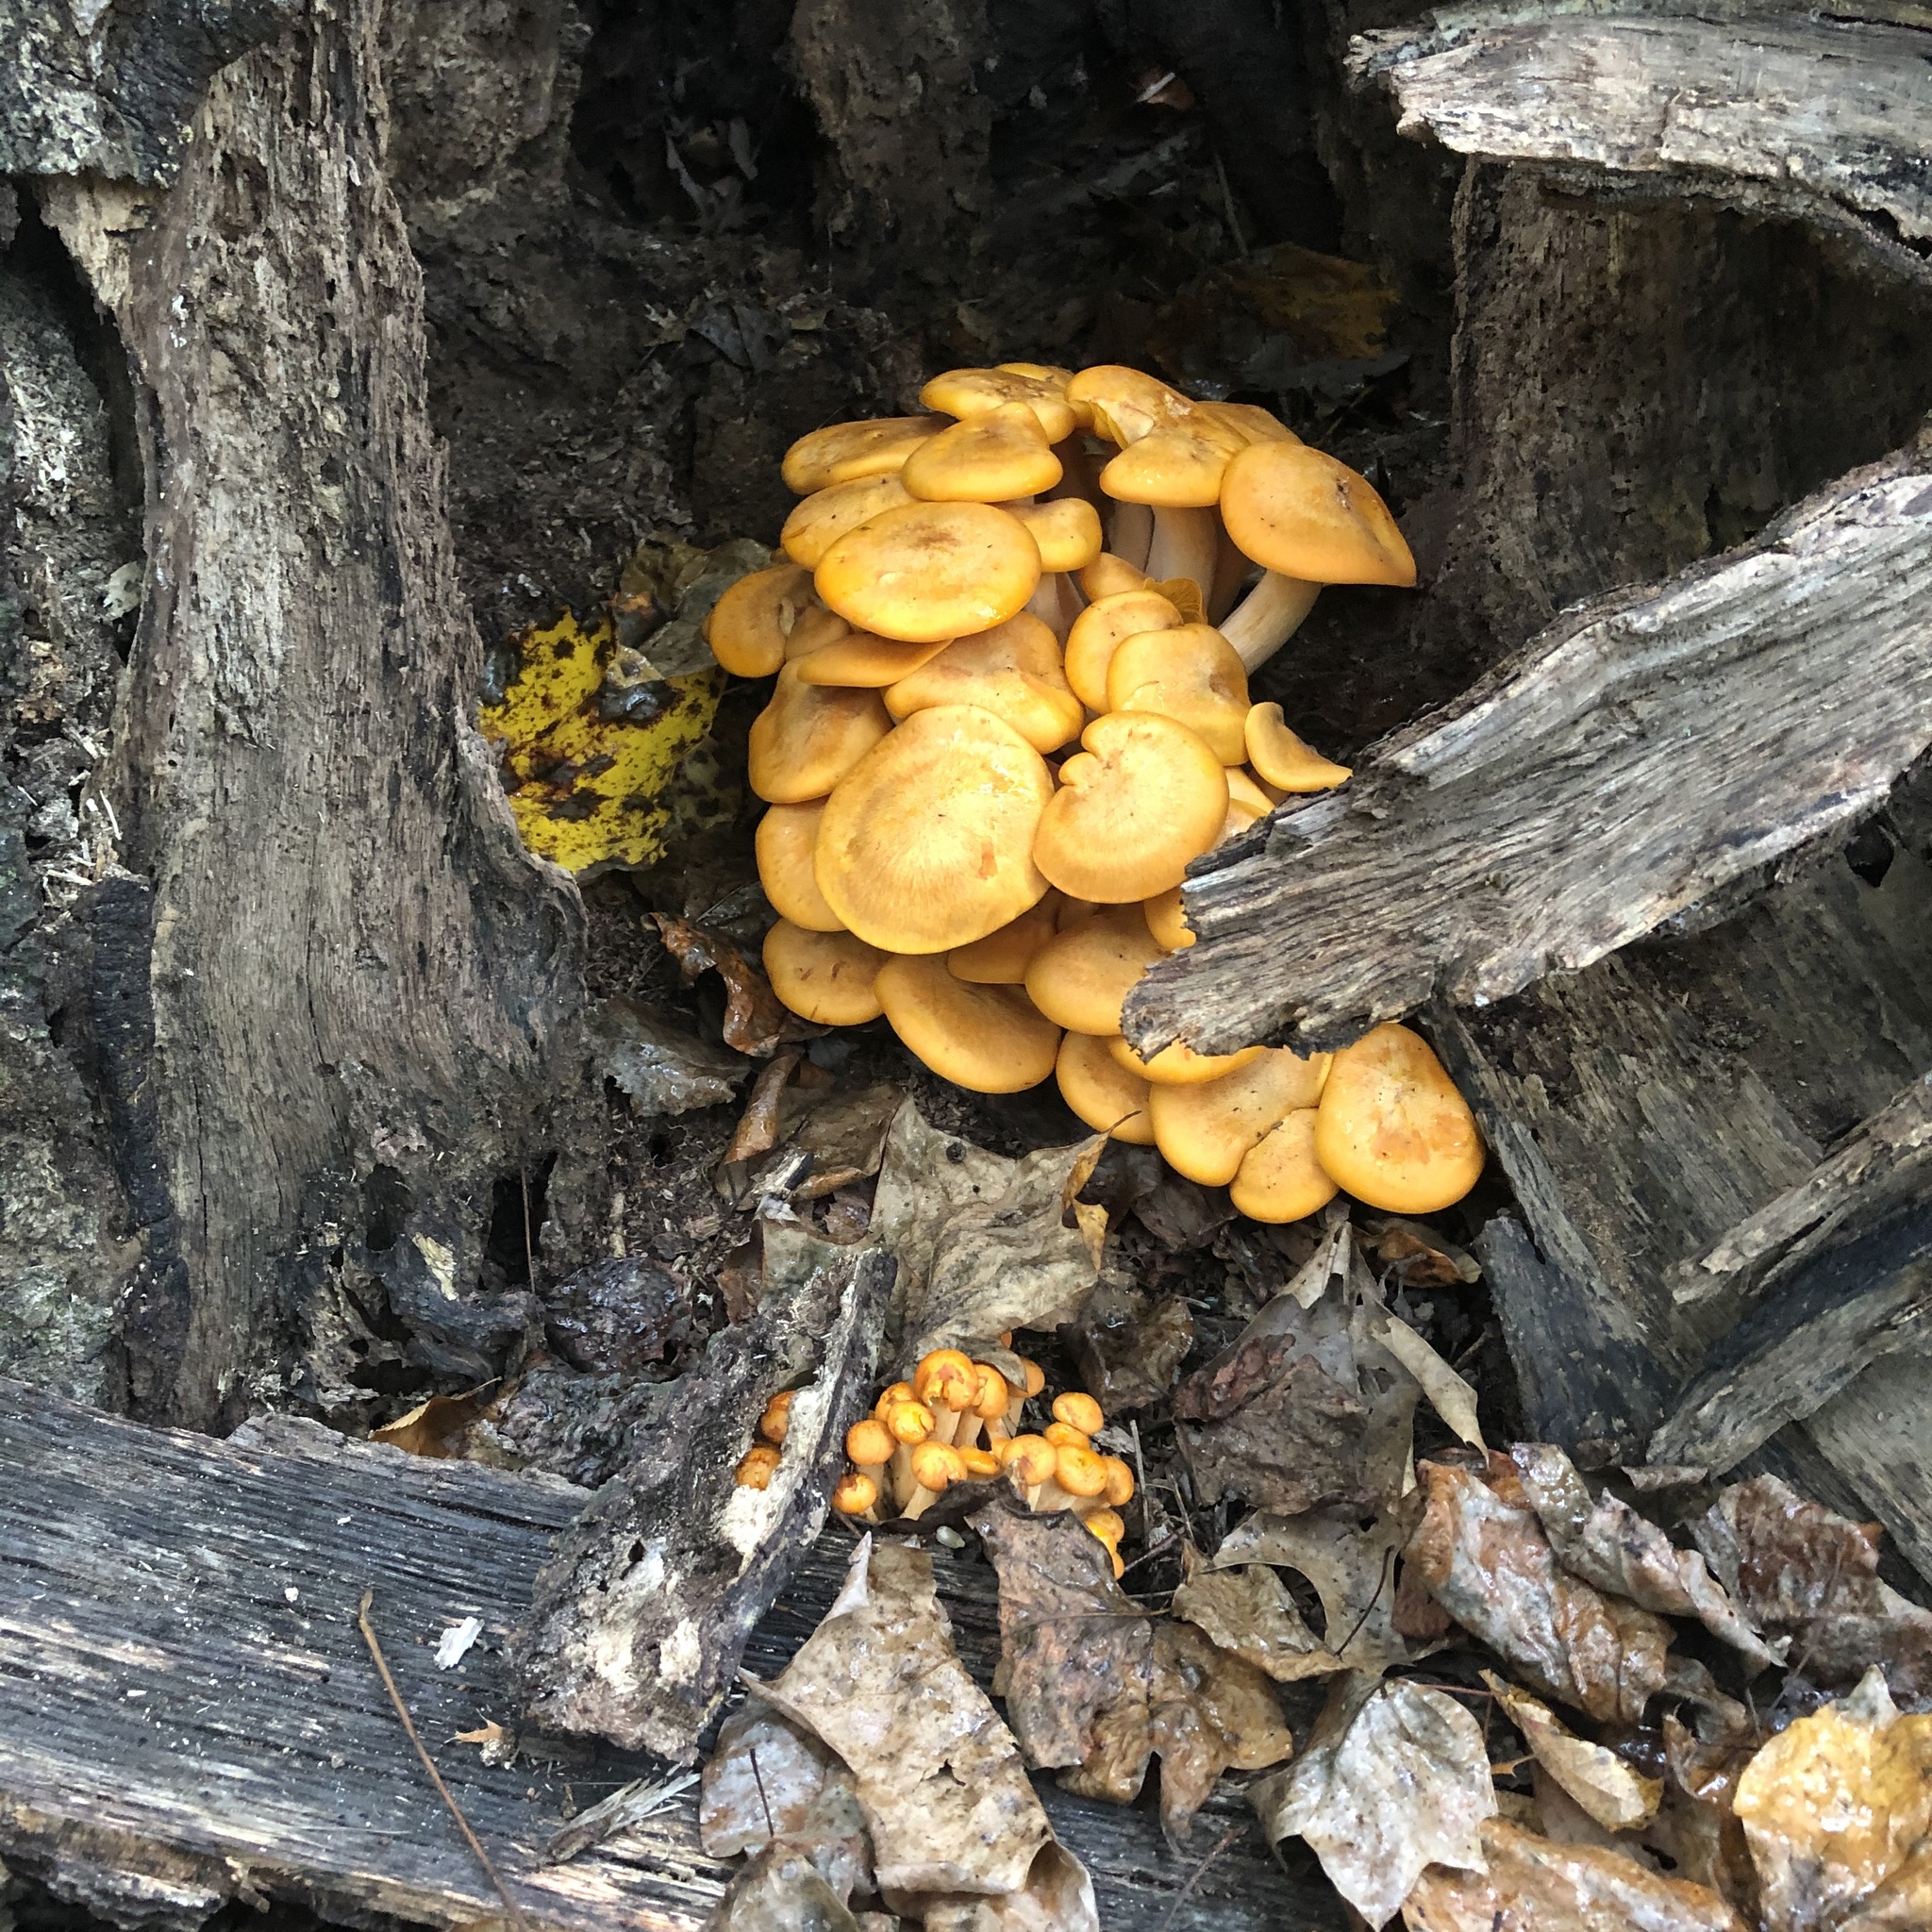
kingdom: Fungi
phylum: Basidiomycota
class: Agaricomycetes
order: Agaricales
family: Omphalotaceae
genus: Omphalotus
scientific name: Omphalotus illudens
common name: Jack o lantern
